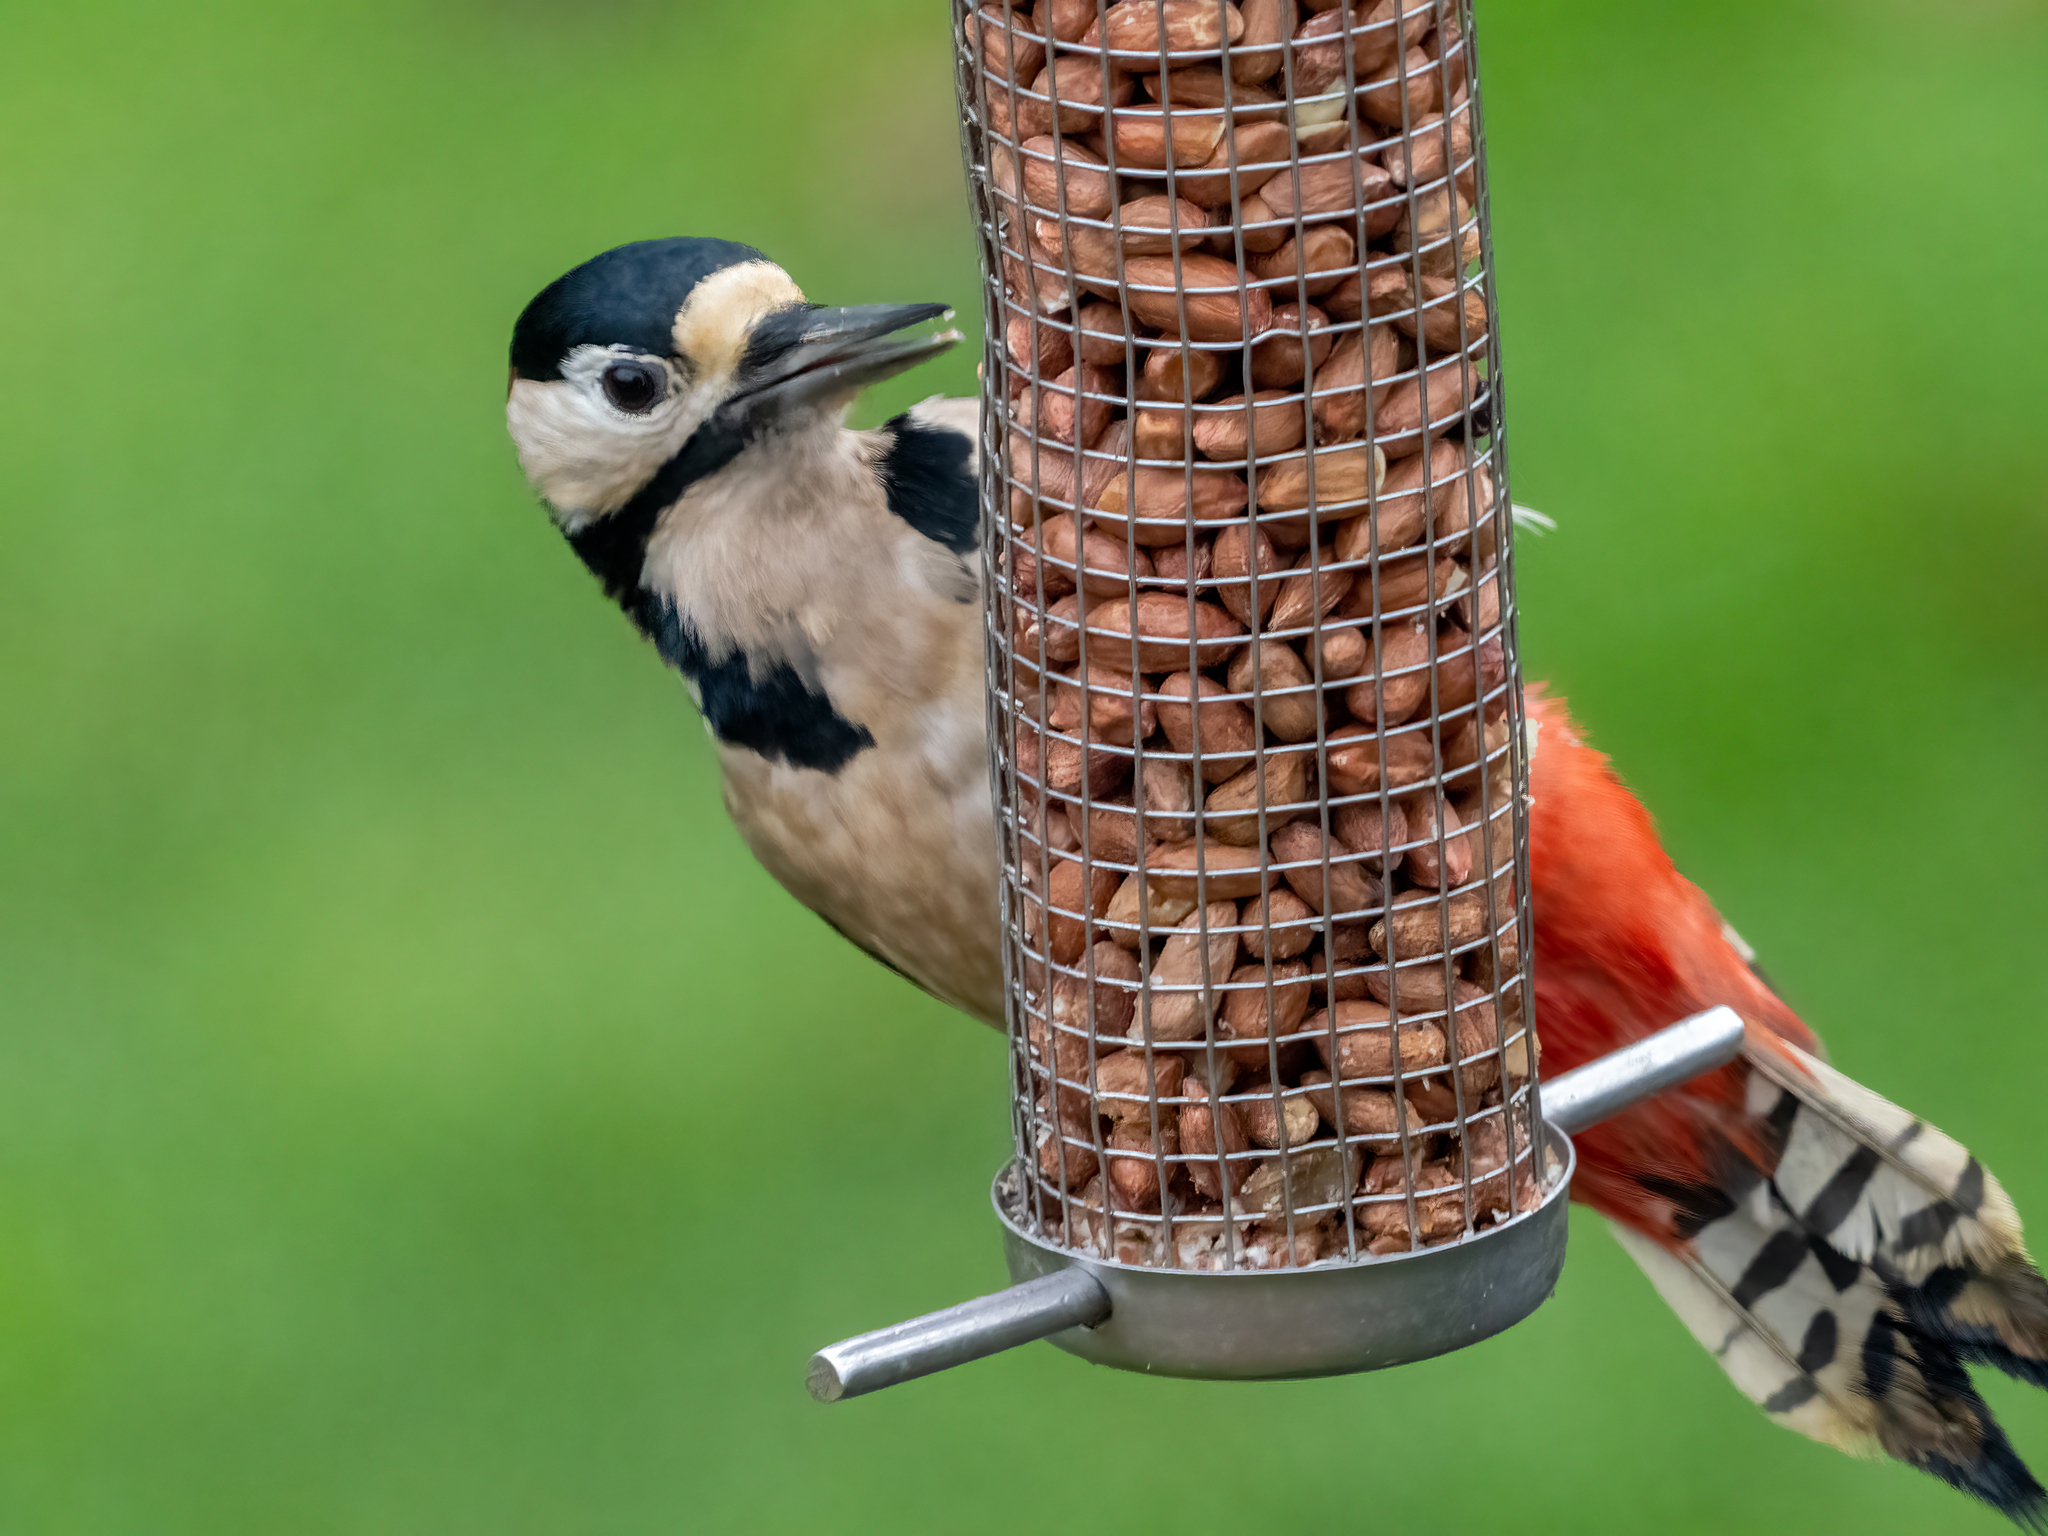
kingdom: Animalia
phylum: Chordata
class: Aves
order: Piciformes
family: Picidae
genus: Dendrocopos
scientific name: Dendrocopos major
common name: Great spotted woodpecker
